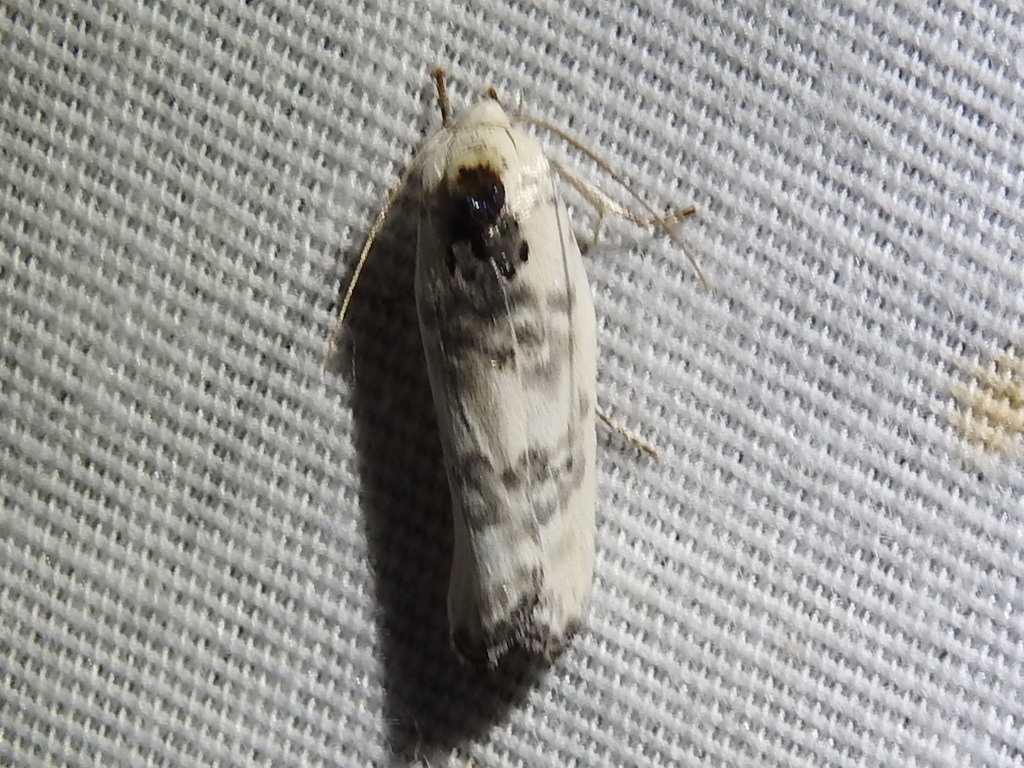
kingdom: Animalia
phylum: Arthropoda
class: Insecta
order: Lepidoptera
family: Depressariidae
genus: Antaeotricha
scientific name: Antaeotricha leucillana
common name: Pale gray bird-dropping moth
